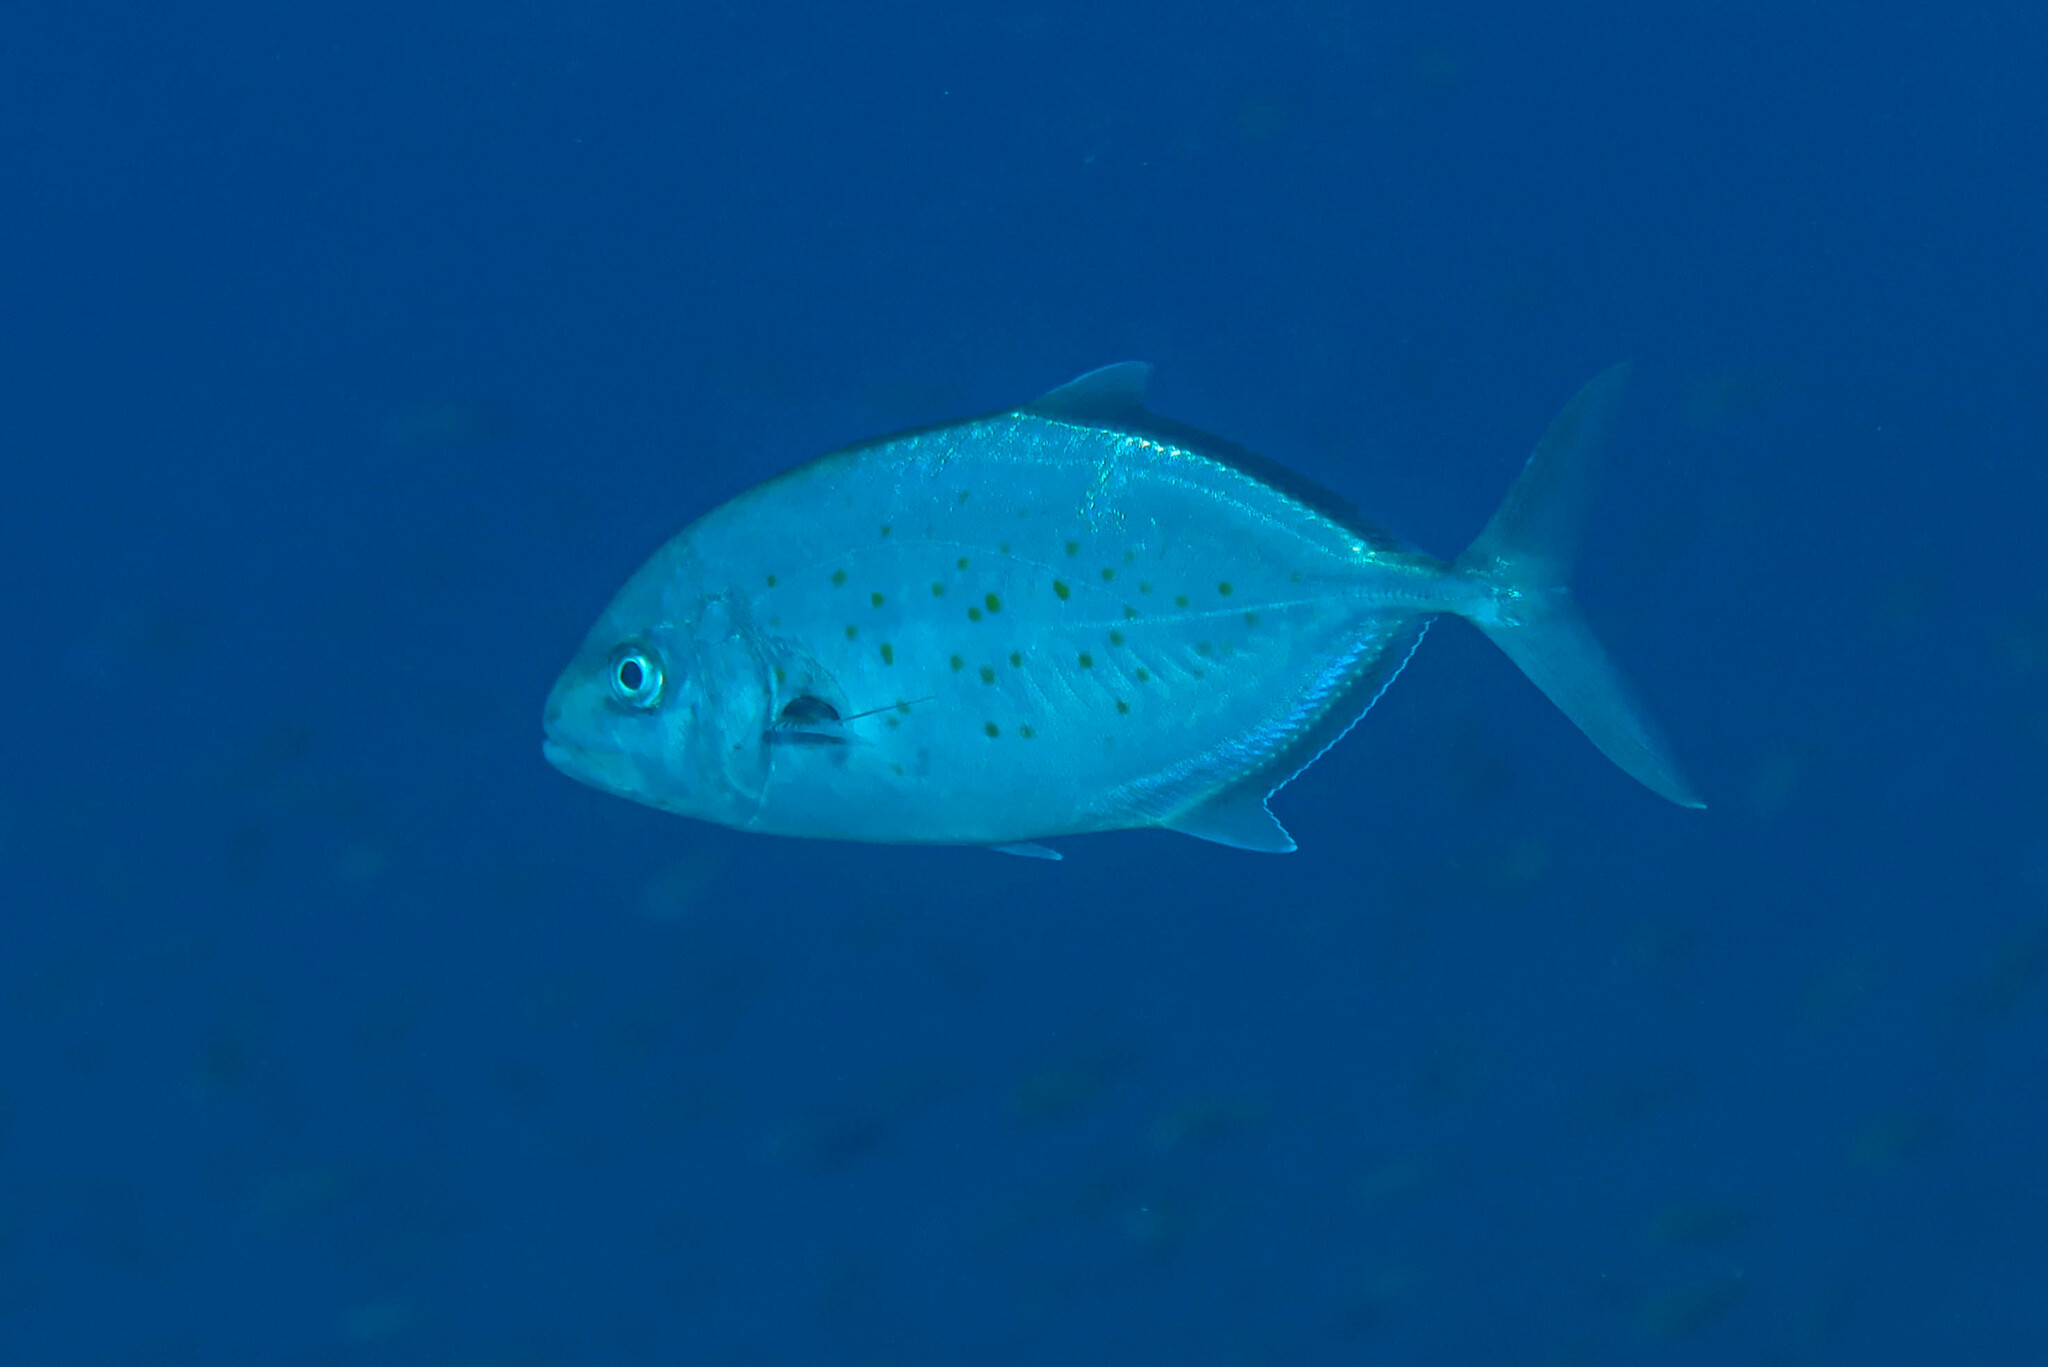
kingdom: Animalia
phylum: Chordata
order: Perciformes
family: Carangidae
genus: Flavocaranx
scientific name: Flavocaranx bajad
